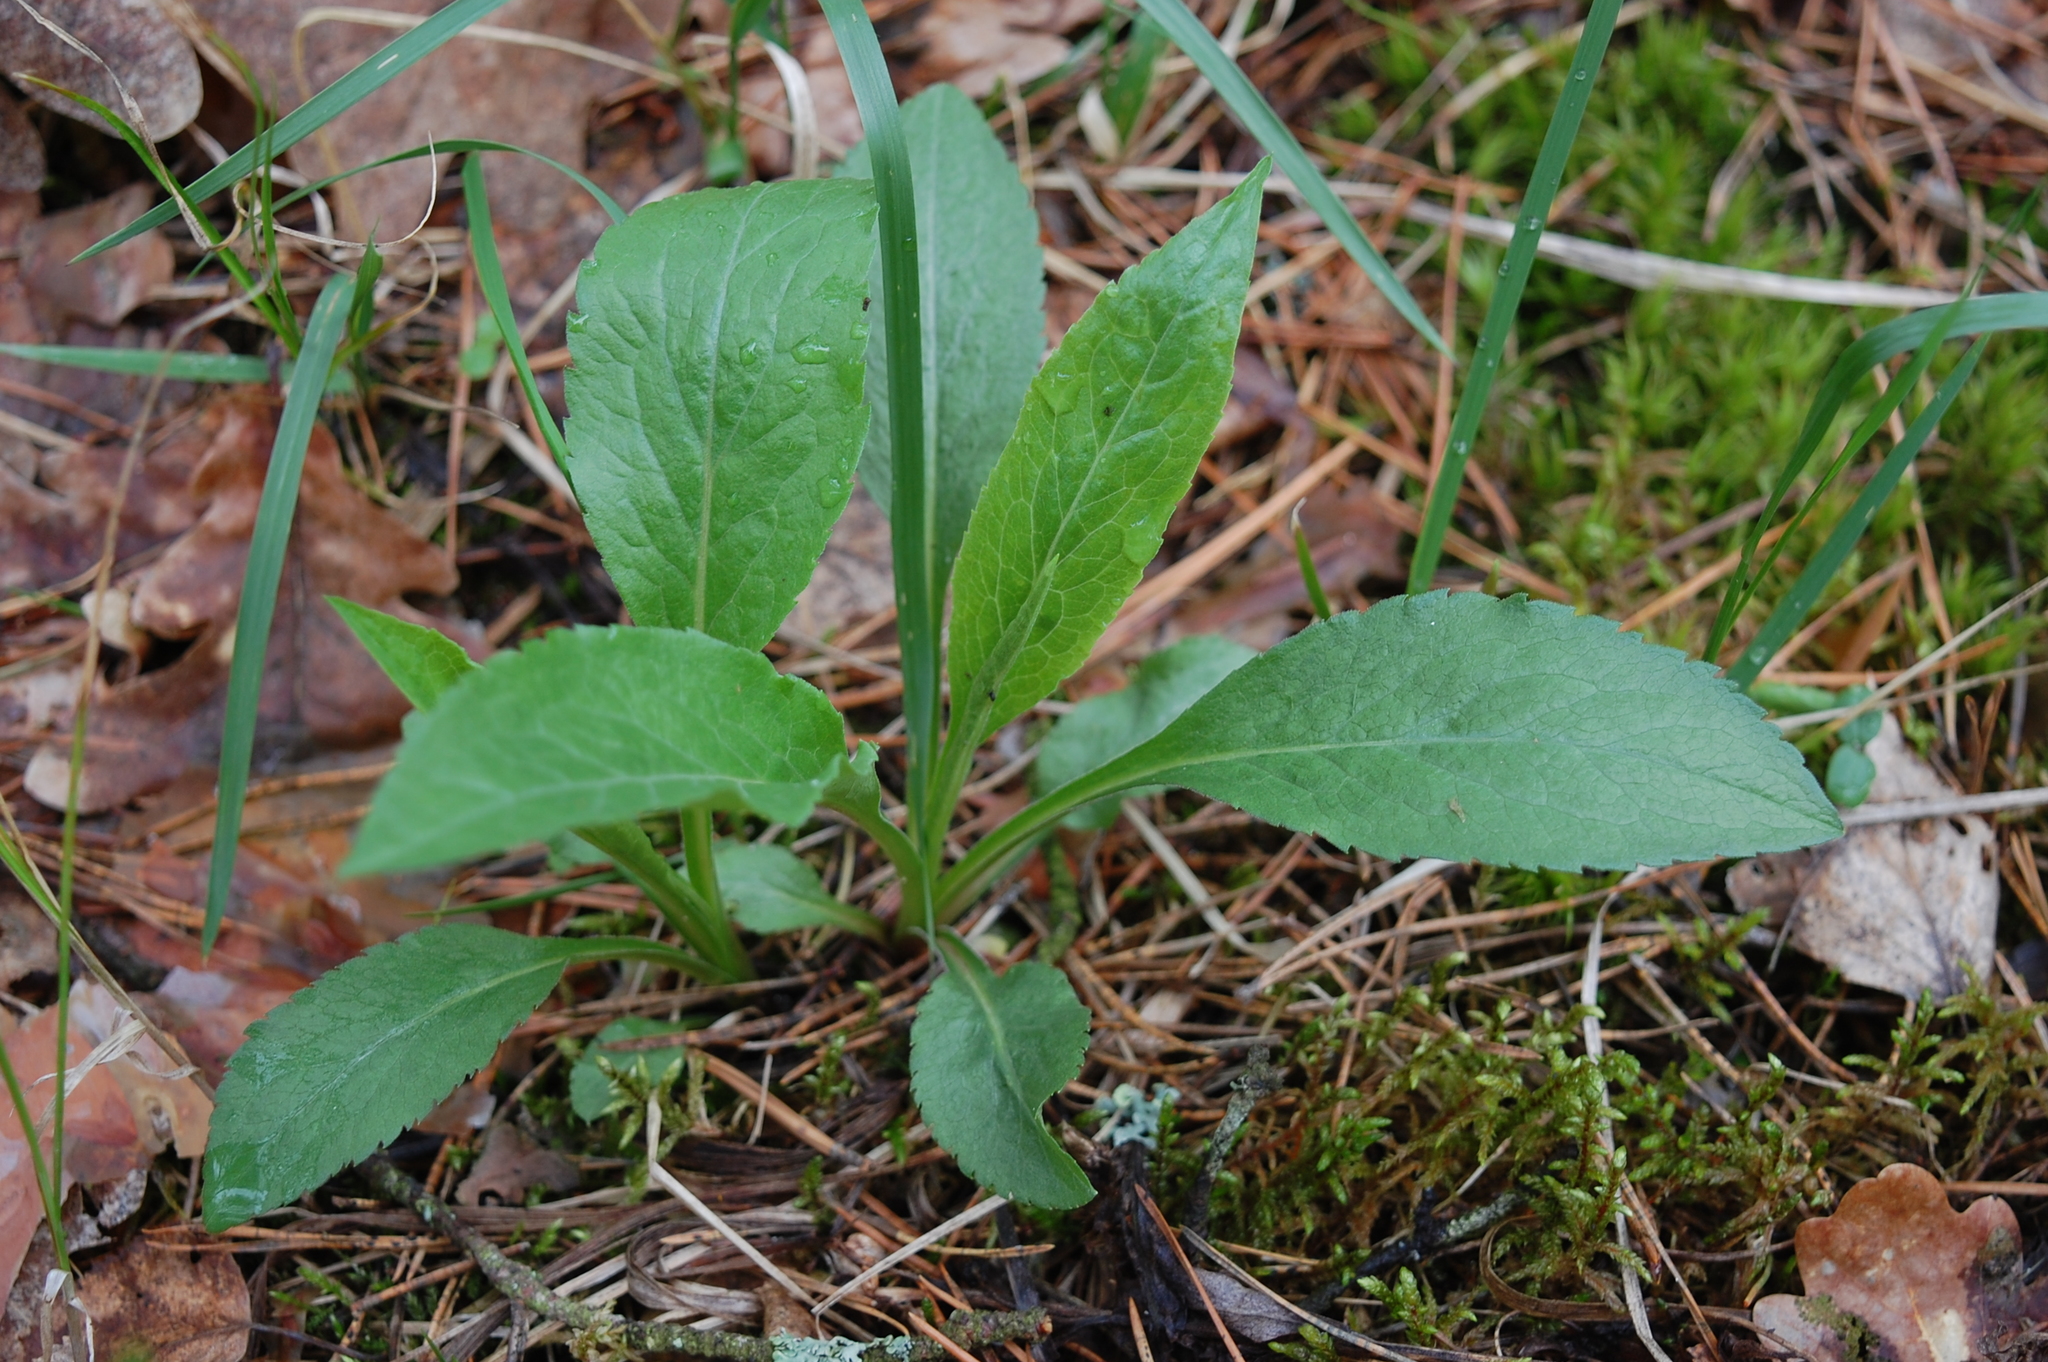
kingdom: Plantae
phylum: Tracheophyta
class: Magnoliopsida
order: Asterales
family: Asteraceae
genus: Solidago
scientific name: Solidago virgaurea
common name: Goldenrod
